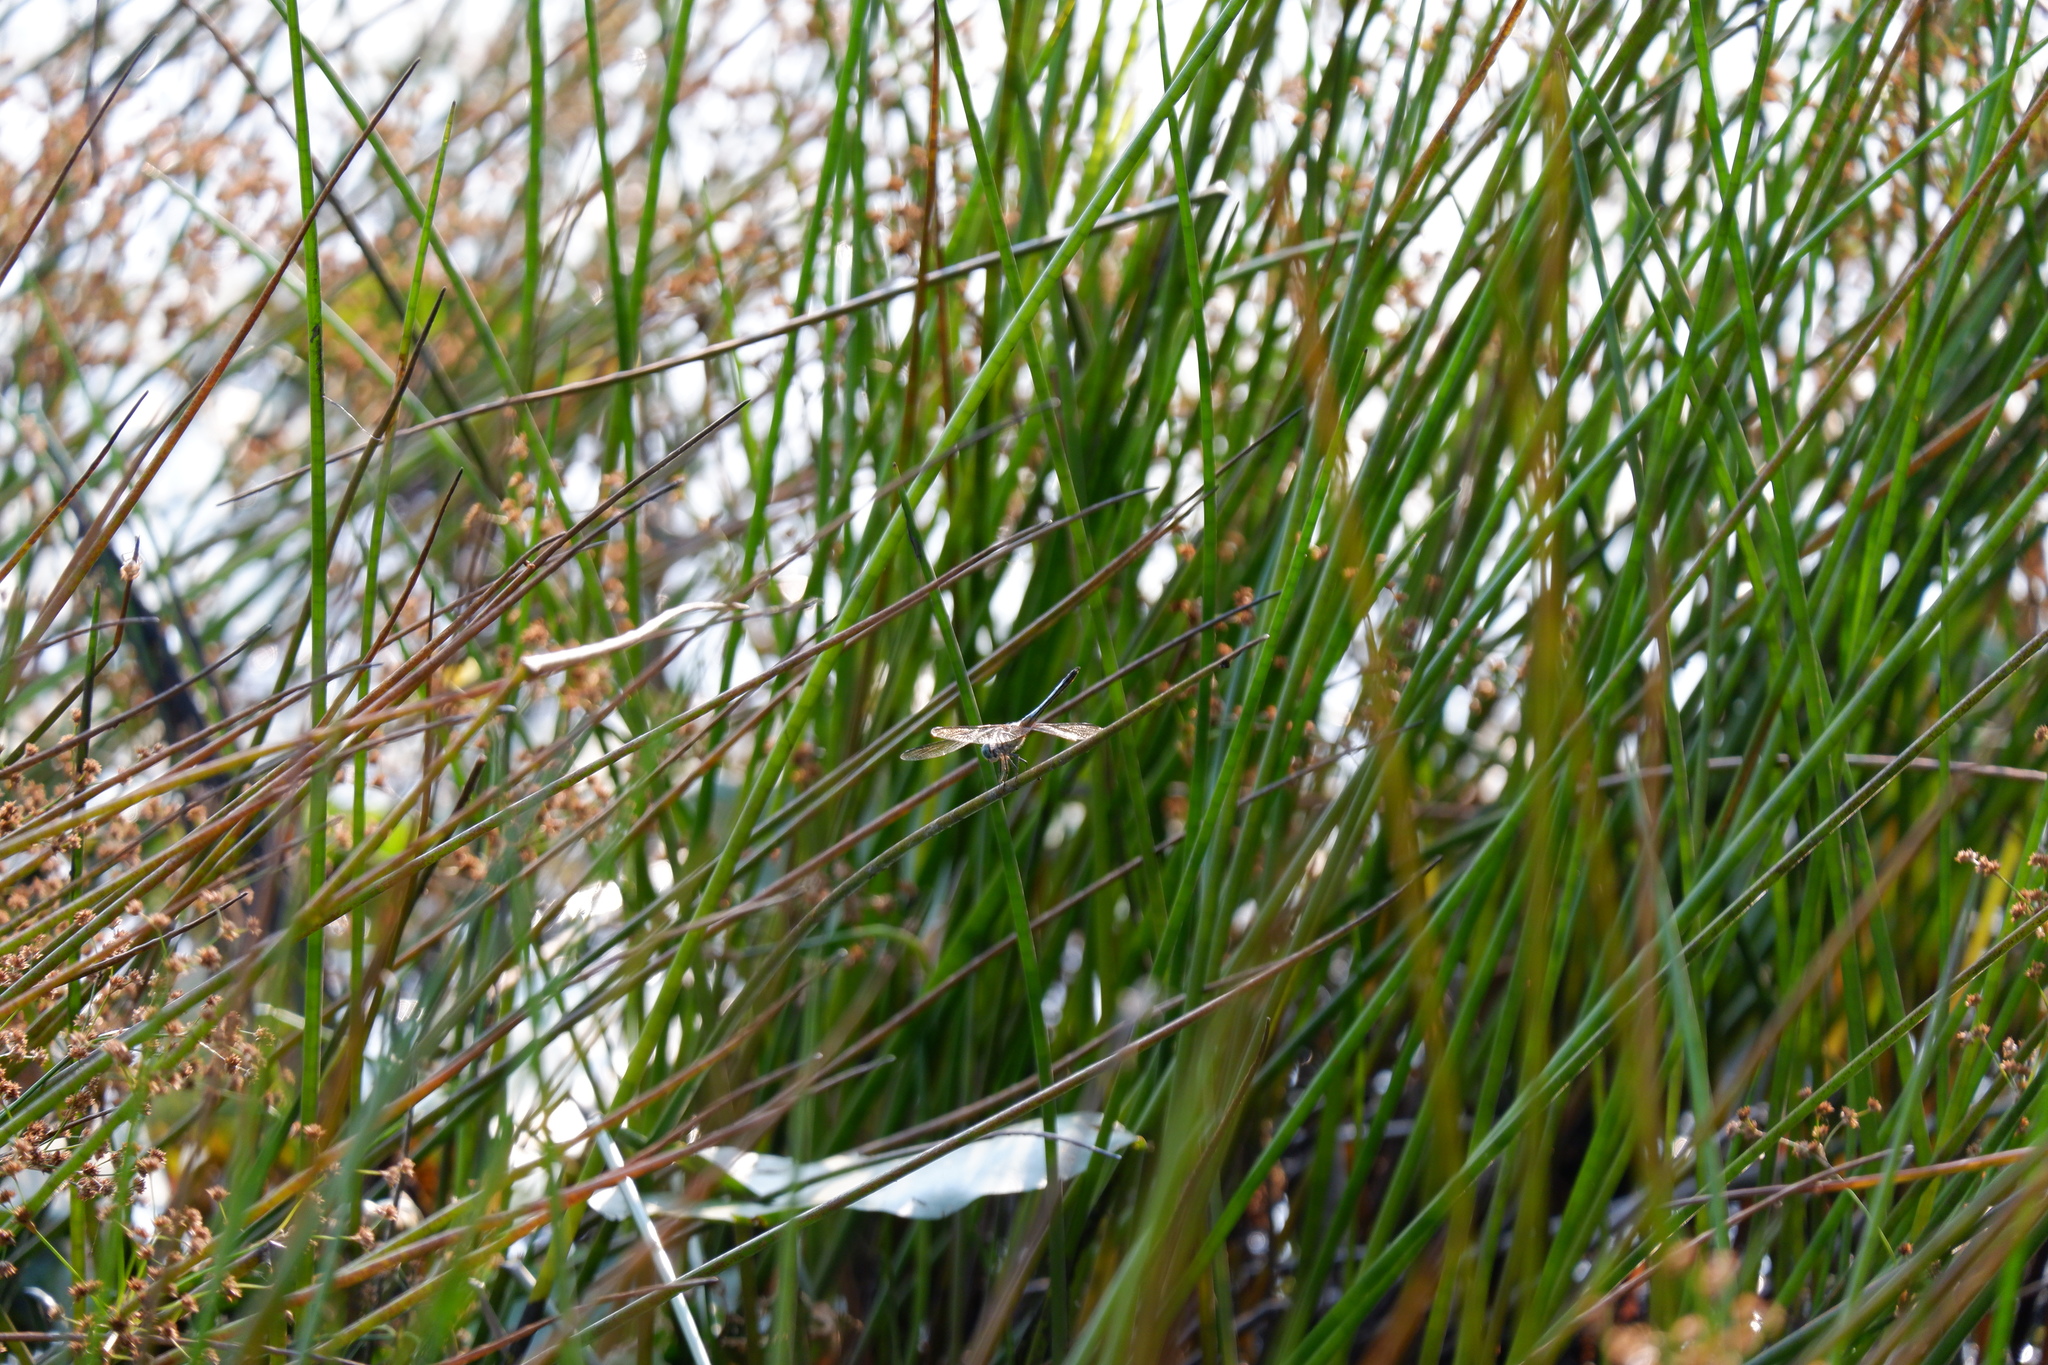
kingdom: Animalia
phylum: Arthropoda
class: Insecta
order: Odonata
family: Libellulidae
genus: Pachydiplax
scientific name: Pachydiplax longipennis
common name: Blue dasher
